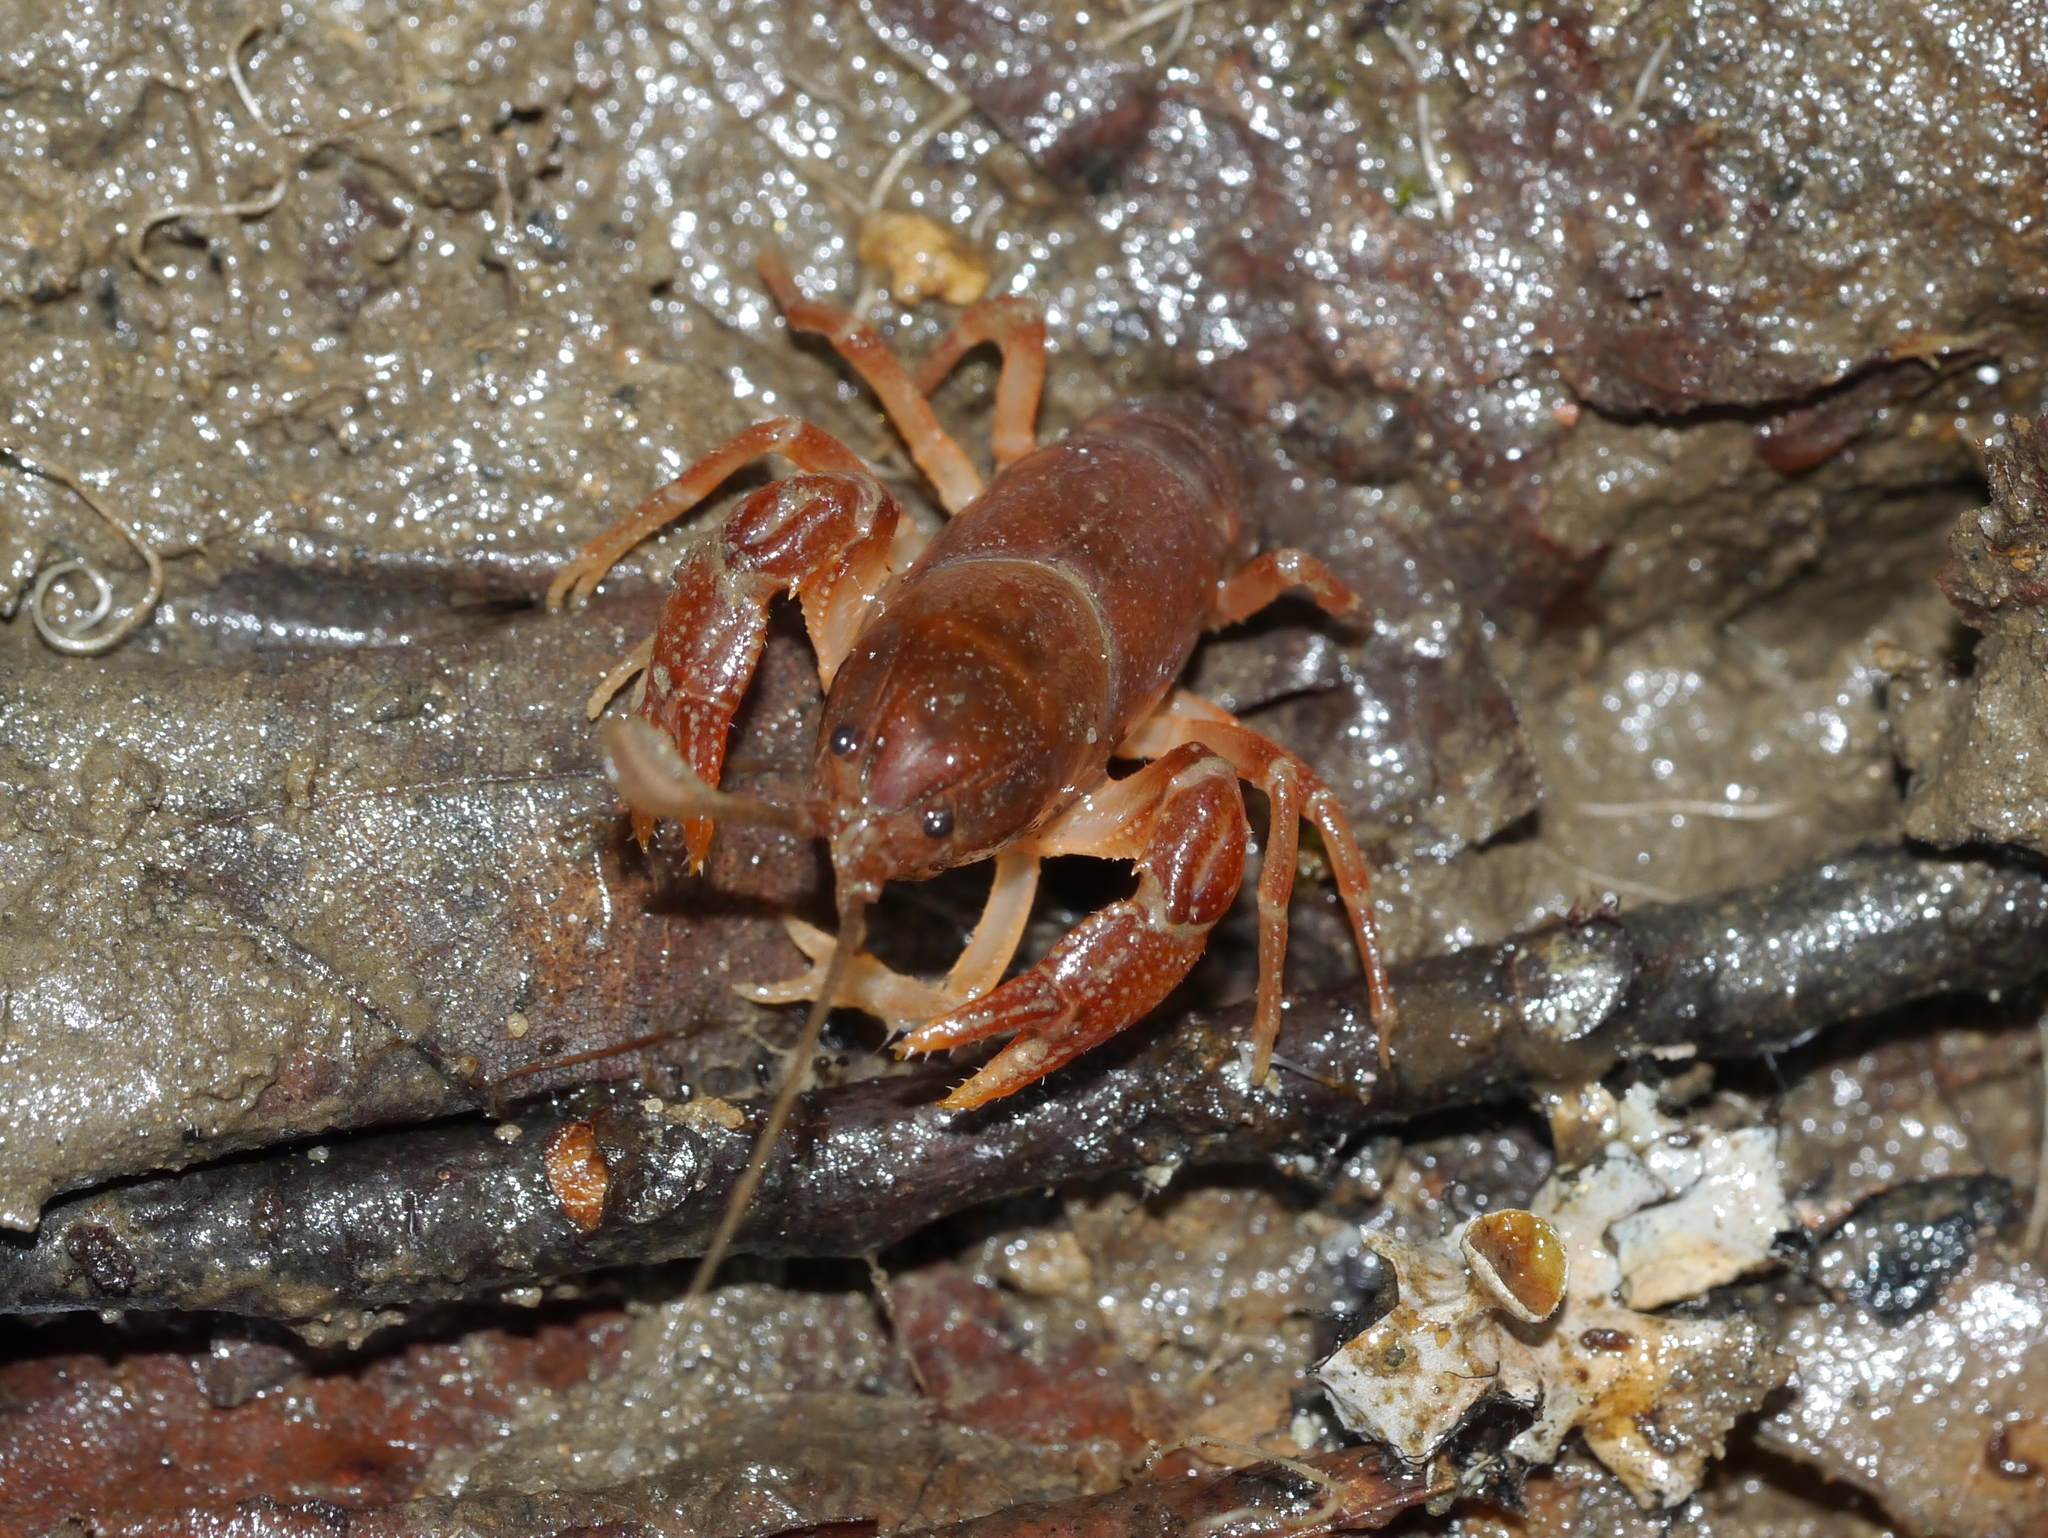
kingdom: Animalia
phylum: Arthropoda
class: Malacostraca
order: Decapoda
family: Cambaridae
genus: Cambarus
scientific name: Cambarus asperimanus
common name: Mitten crayfish
